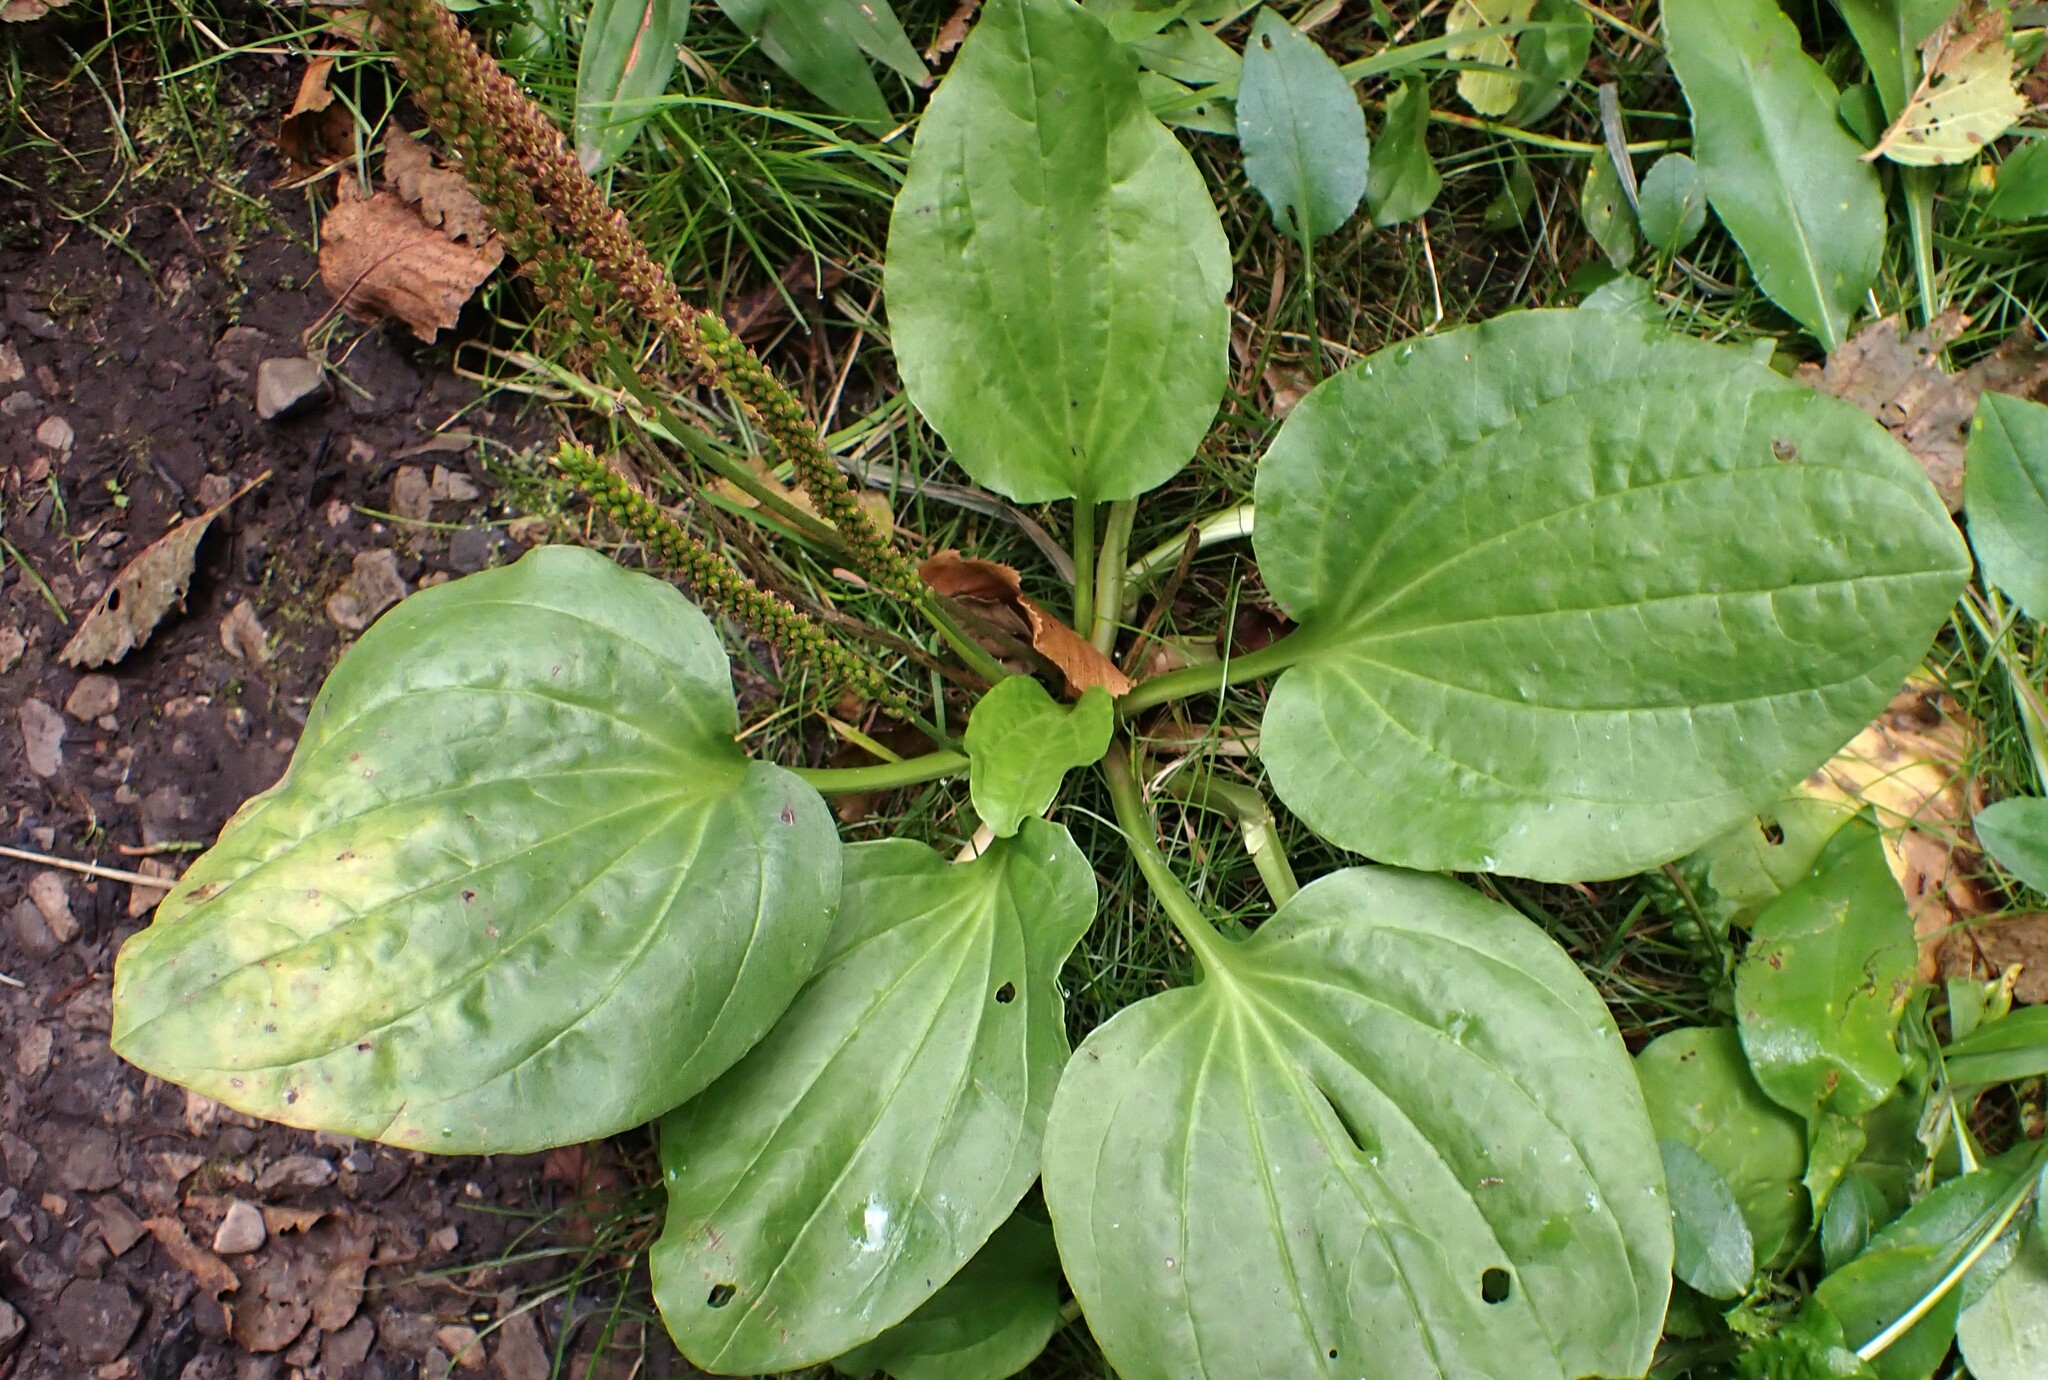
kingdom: Plantae
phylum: Tracheophyta
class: Magnoliopsida
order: Lamiales
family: Plantaginaceae
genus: Plantago
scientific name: Plantago major
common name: Common plantain
